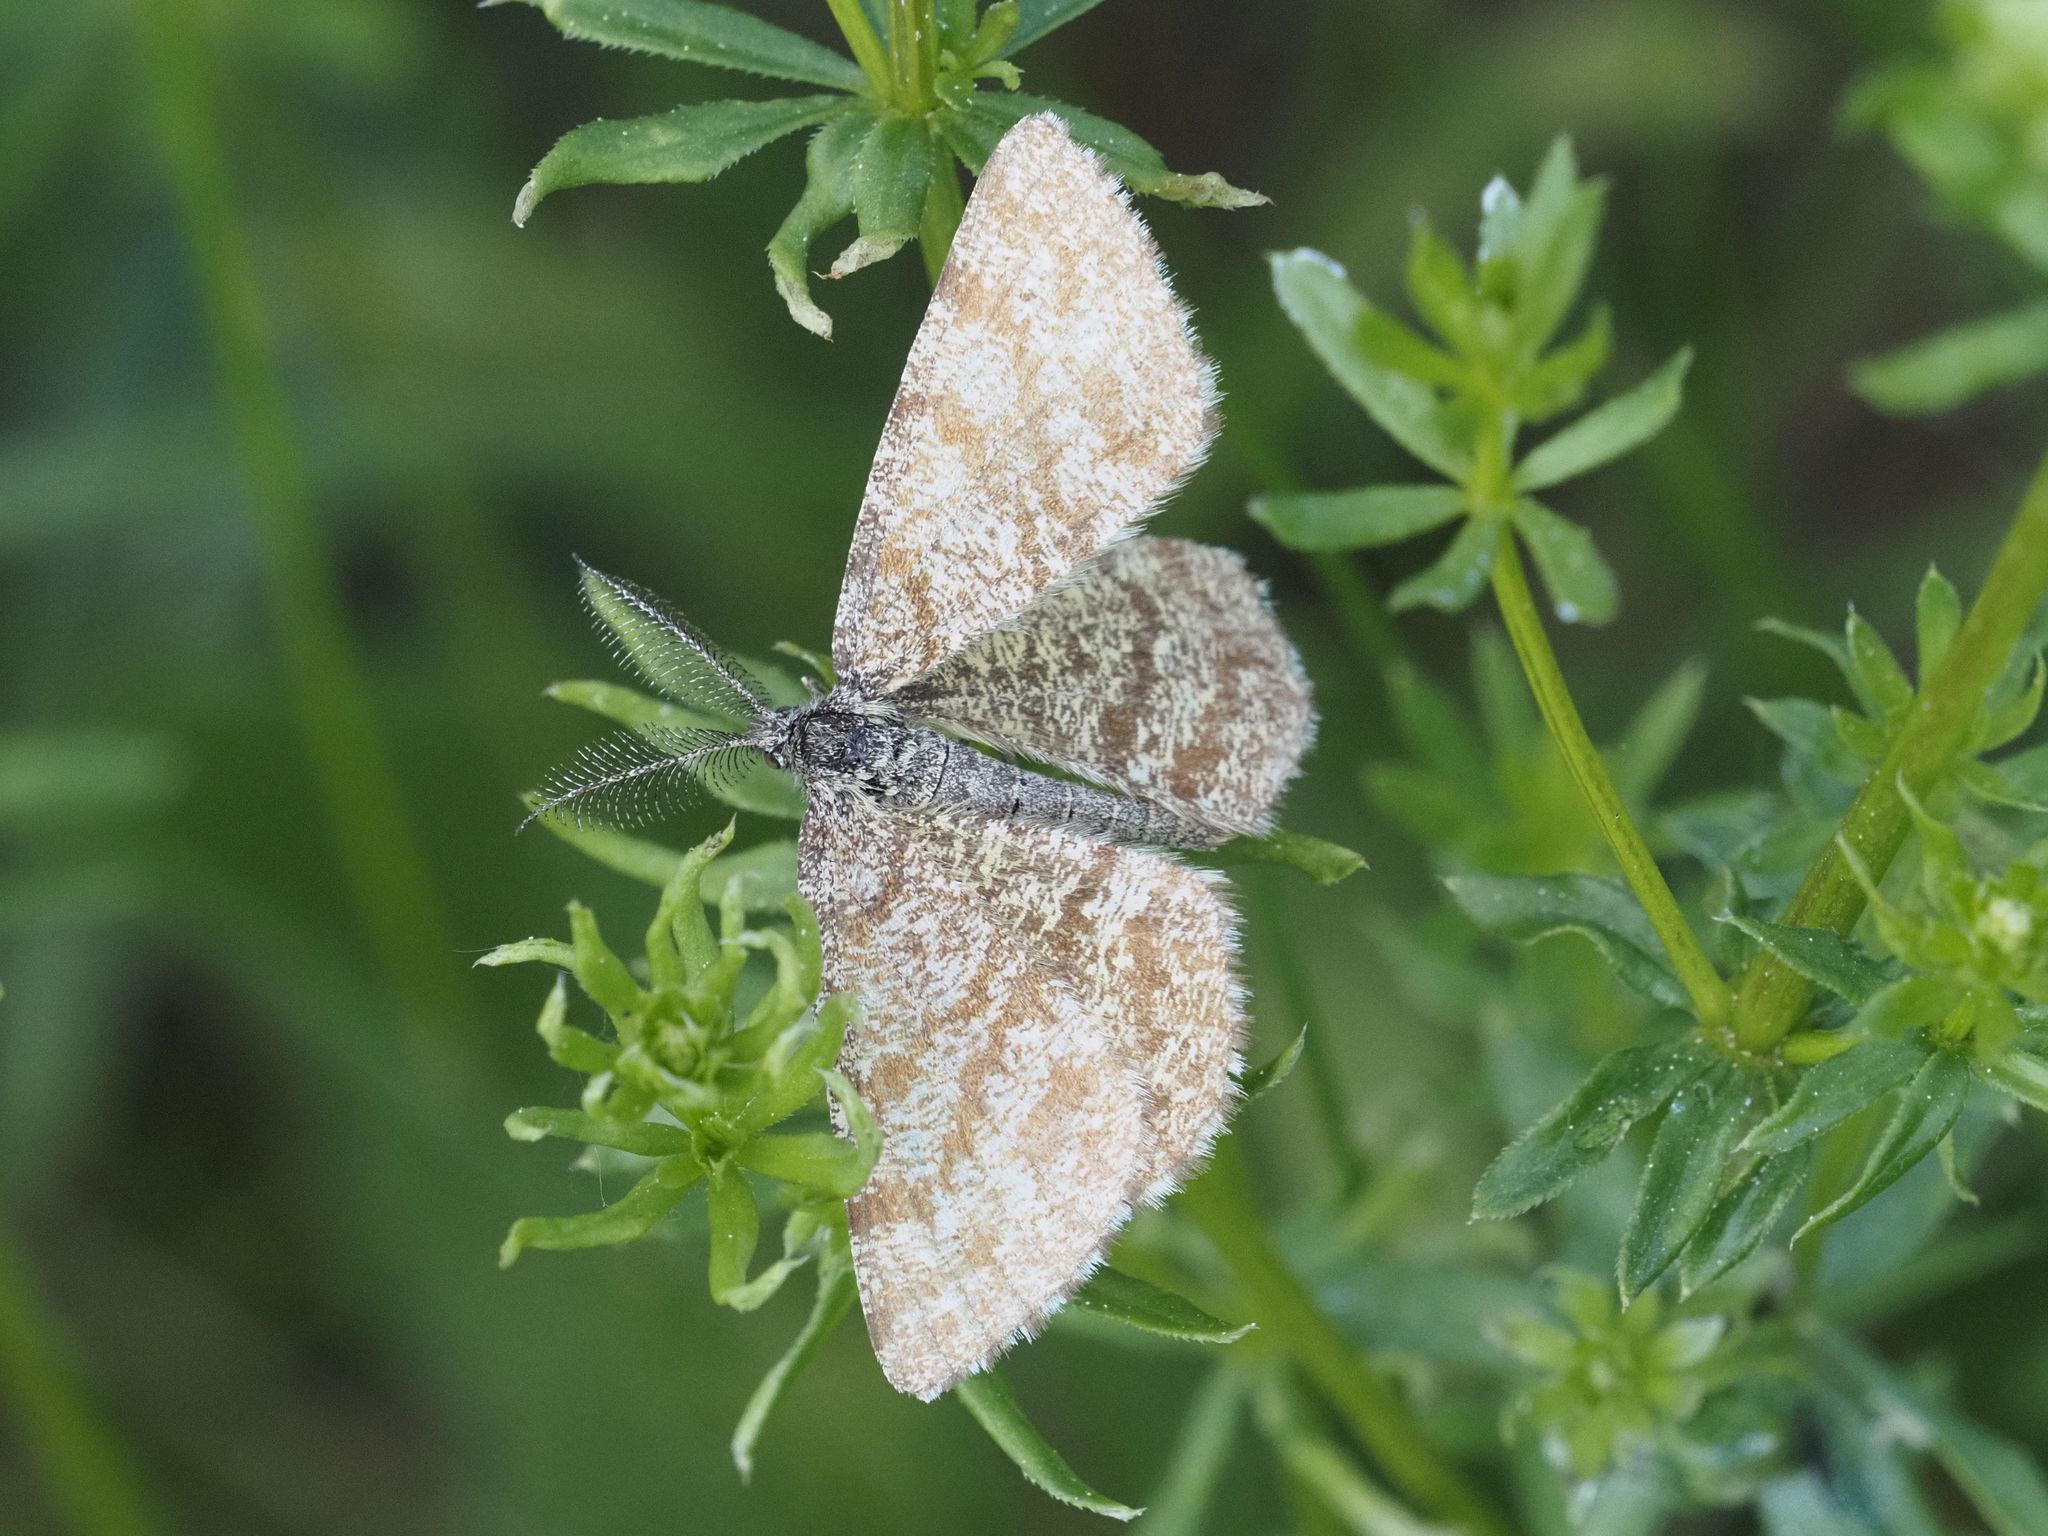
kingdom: Animalia
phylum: Arthropoda
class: Insecta
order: Lepidoptera
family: Geometridae
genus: Ematurga
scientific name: Ematurga atomaria
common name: Common heath
